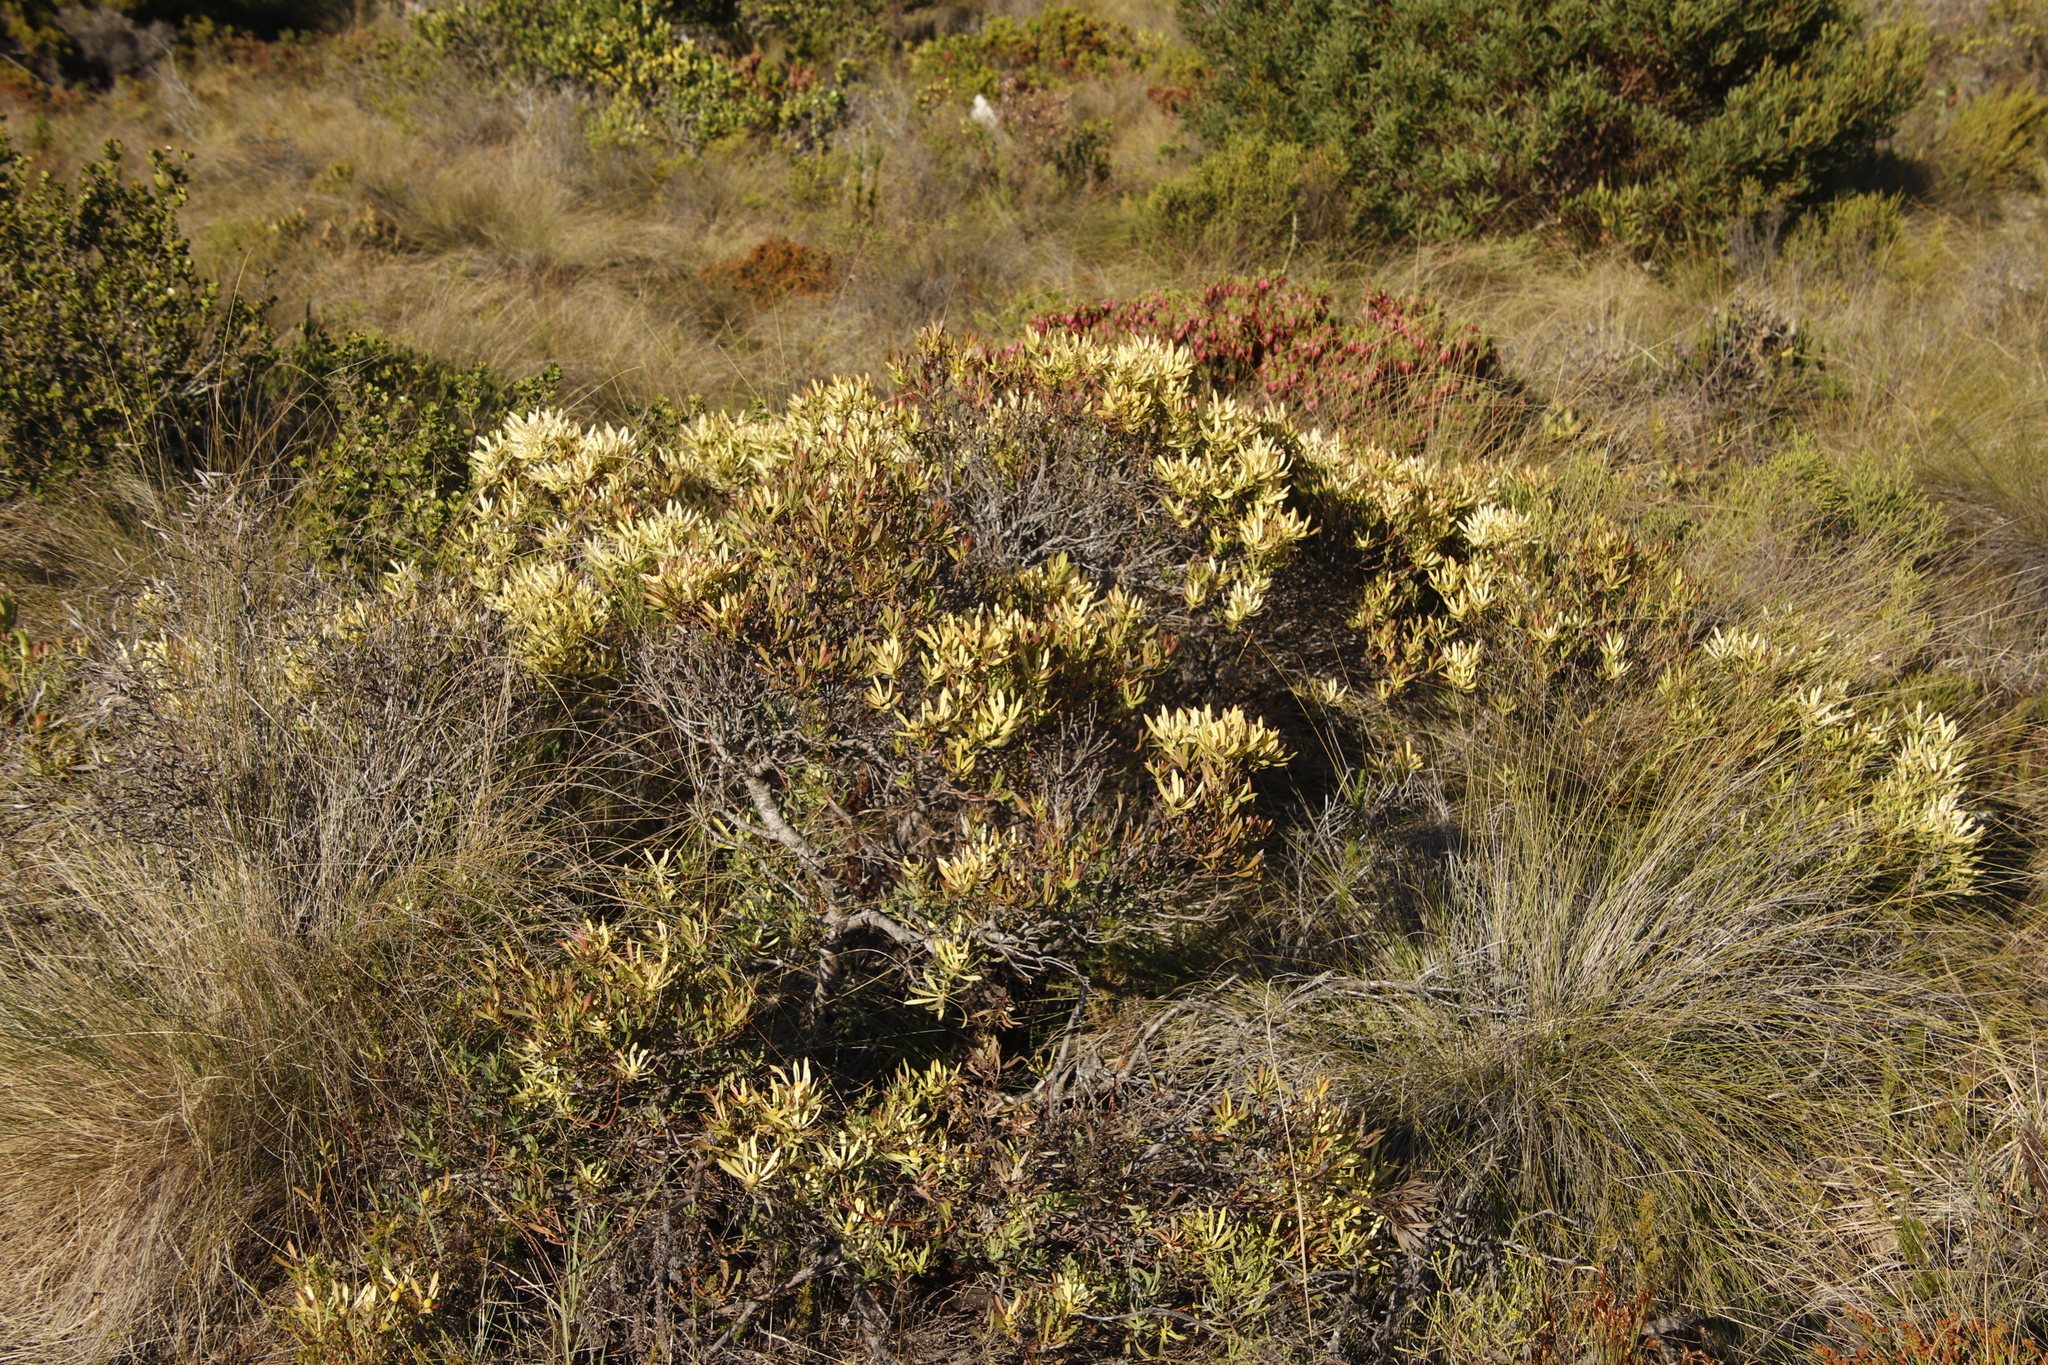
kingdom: Plantae
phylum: Tracheophyta
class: Magnoliopsida
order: Proteales
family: Proteaceae
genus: Leucadendron
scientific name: Leucadendron salignum
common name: Common sunshine conebush
